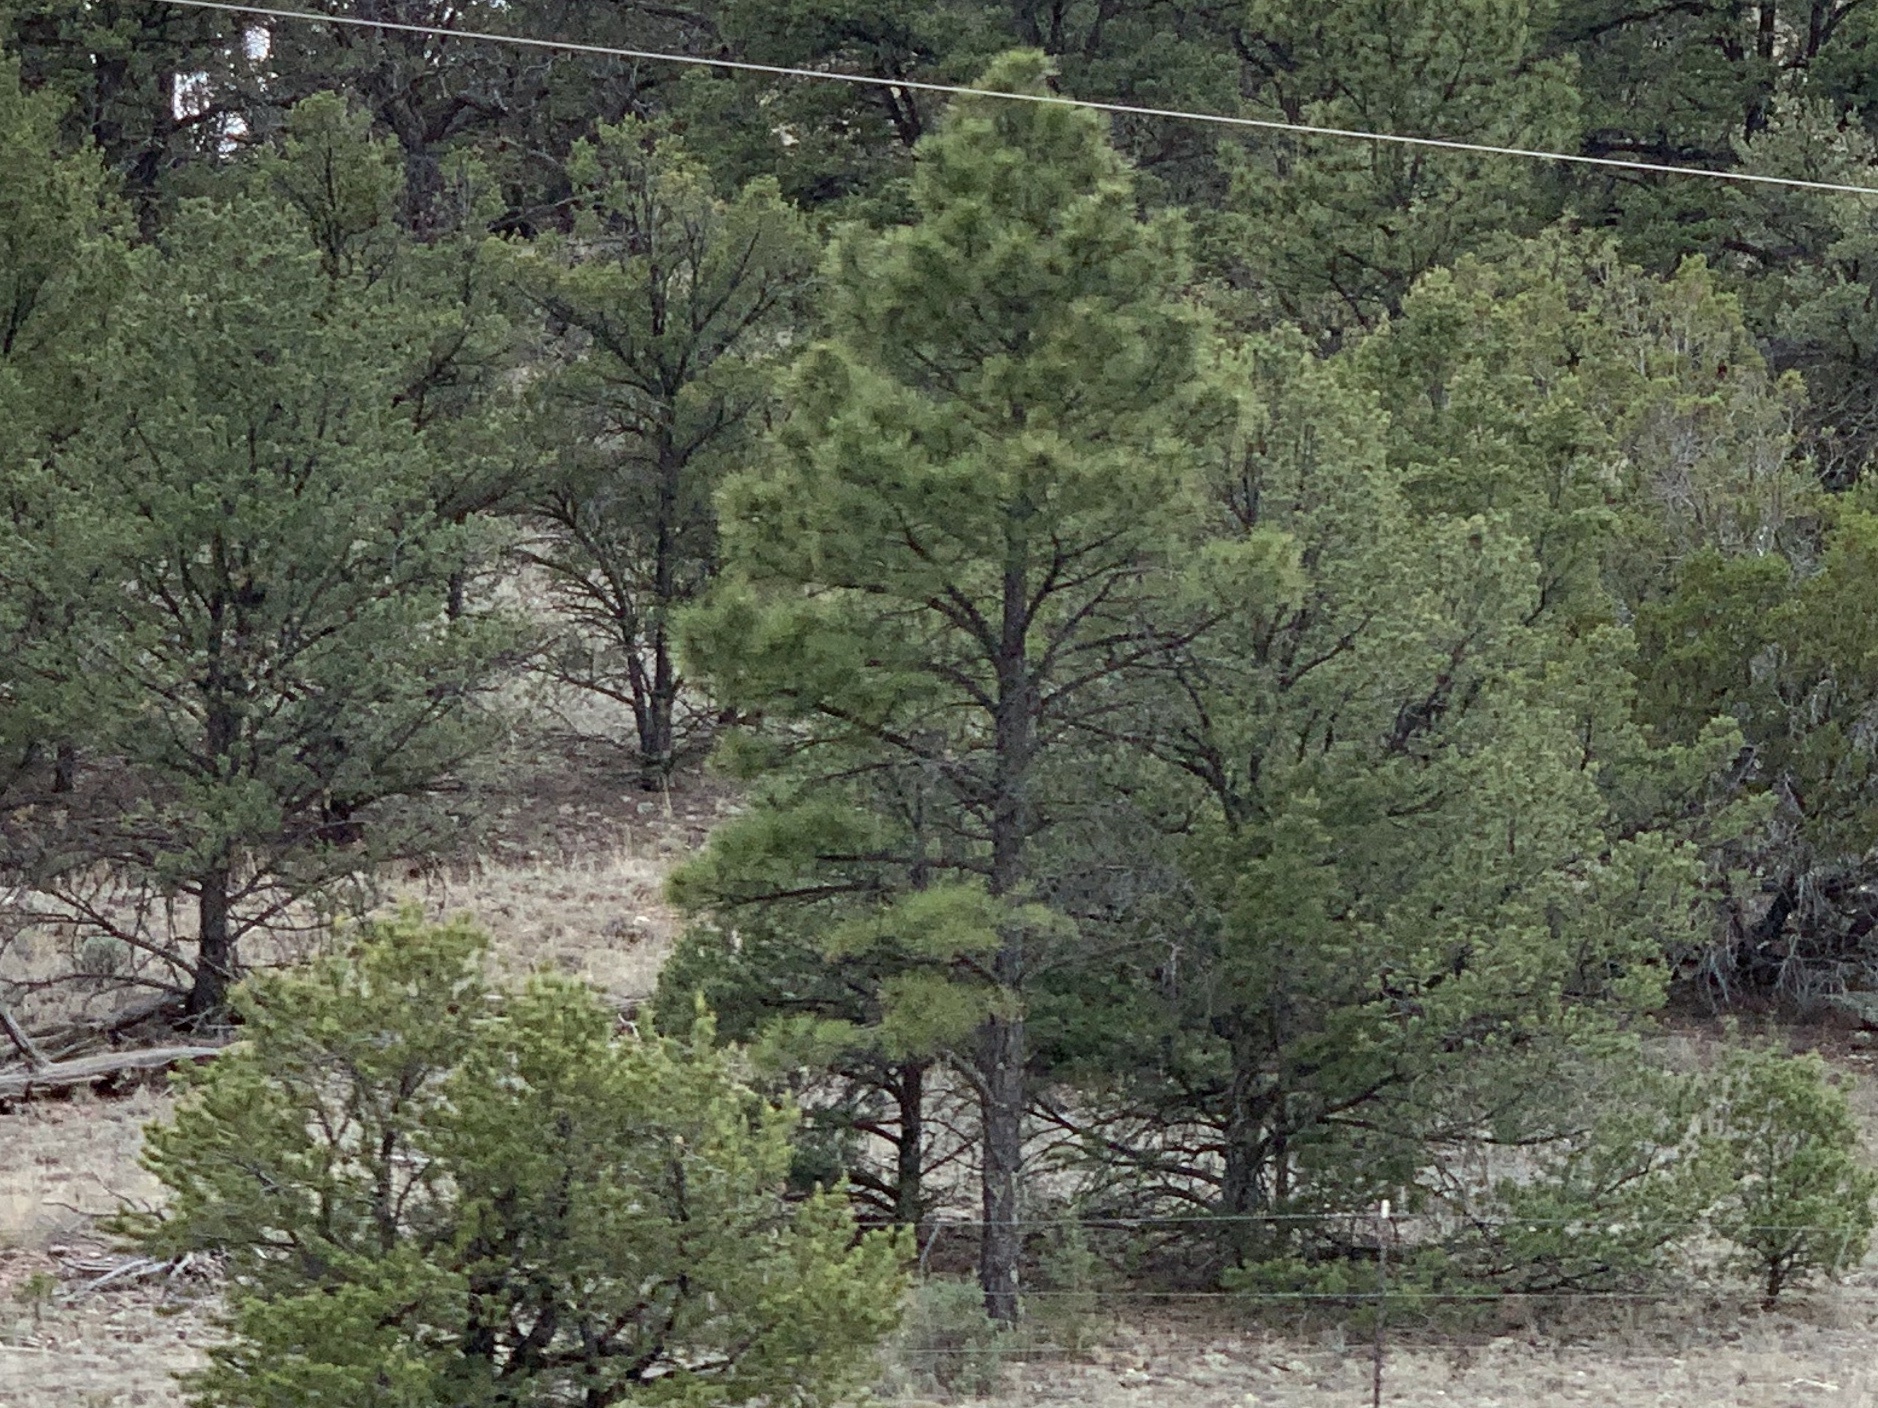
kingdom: Plantae
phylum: Tracheophyta
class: Pinopsida
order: Pinales
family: Pinaceae
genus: Pinus
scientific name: Pinus ponderosa
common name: Western yellow-pine
